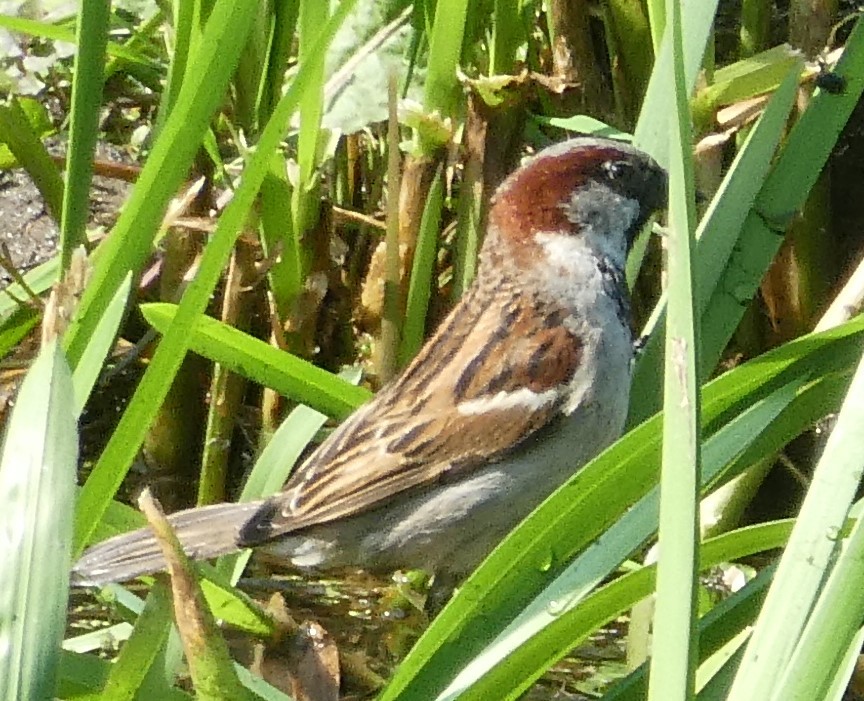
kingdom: Animalia
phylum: Chordata
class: Aves
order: Passeriformes
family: Passeridae
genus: Passer
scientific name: Passer domesticus
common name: House sparrow
